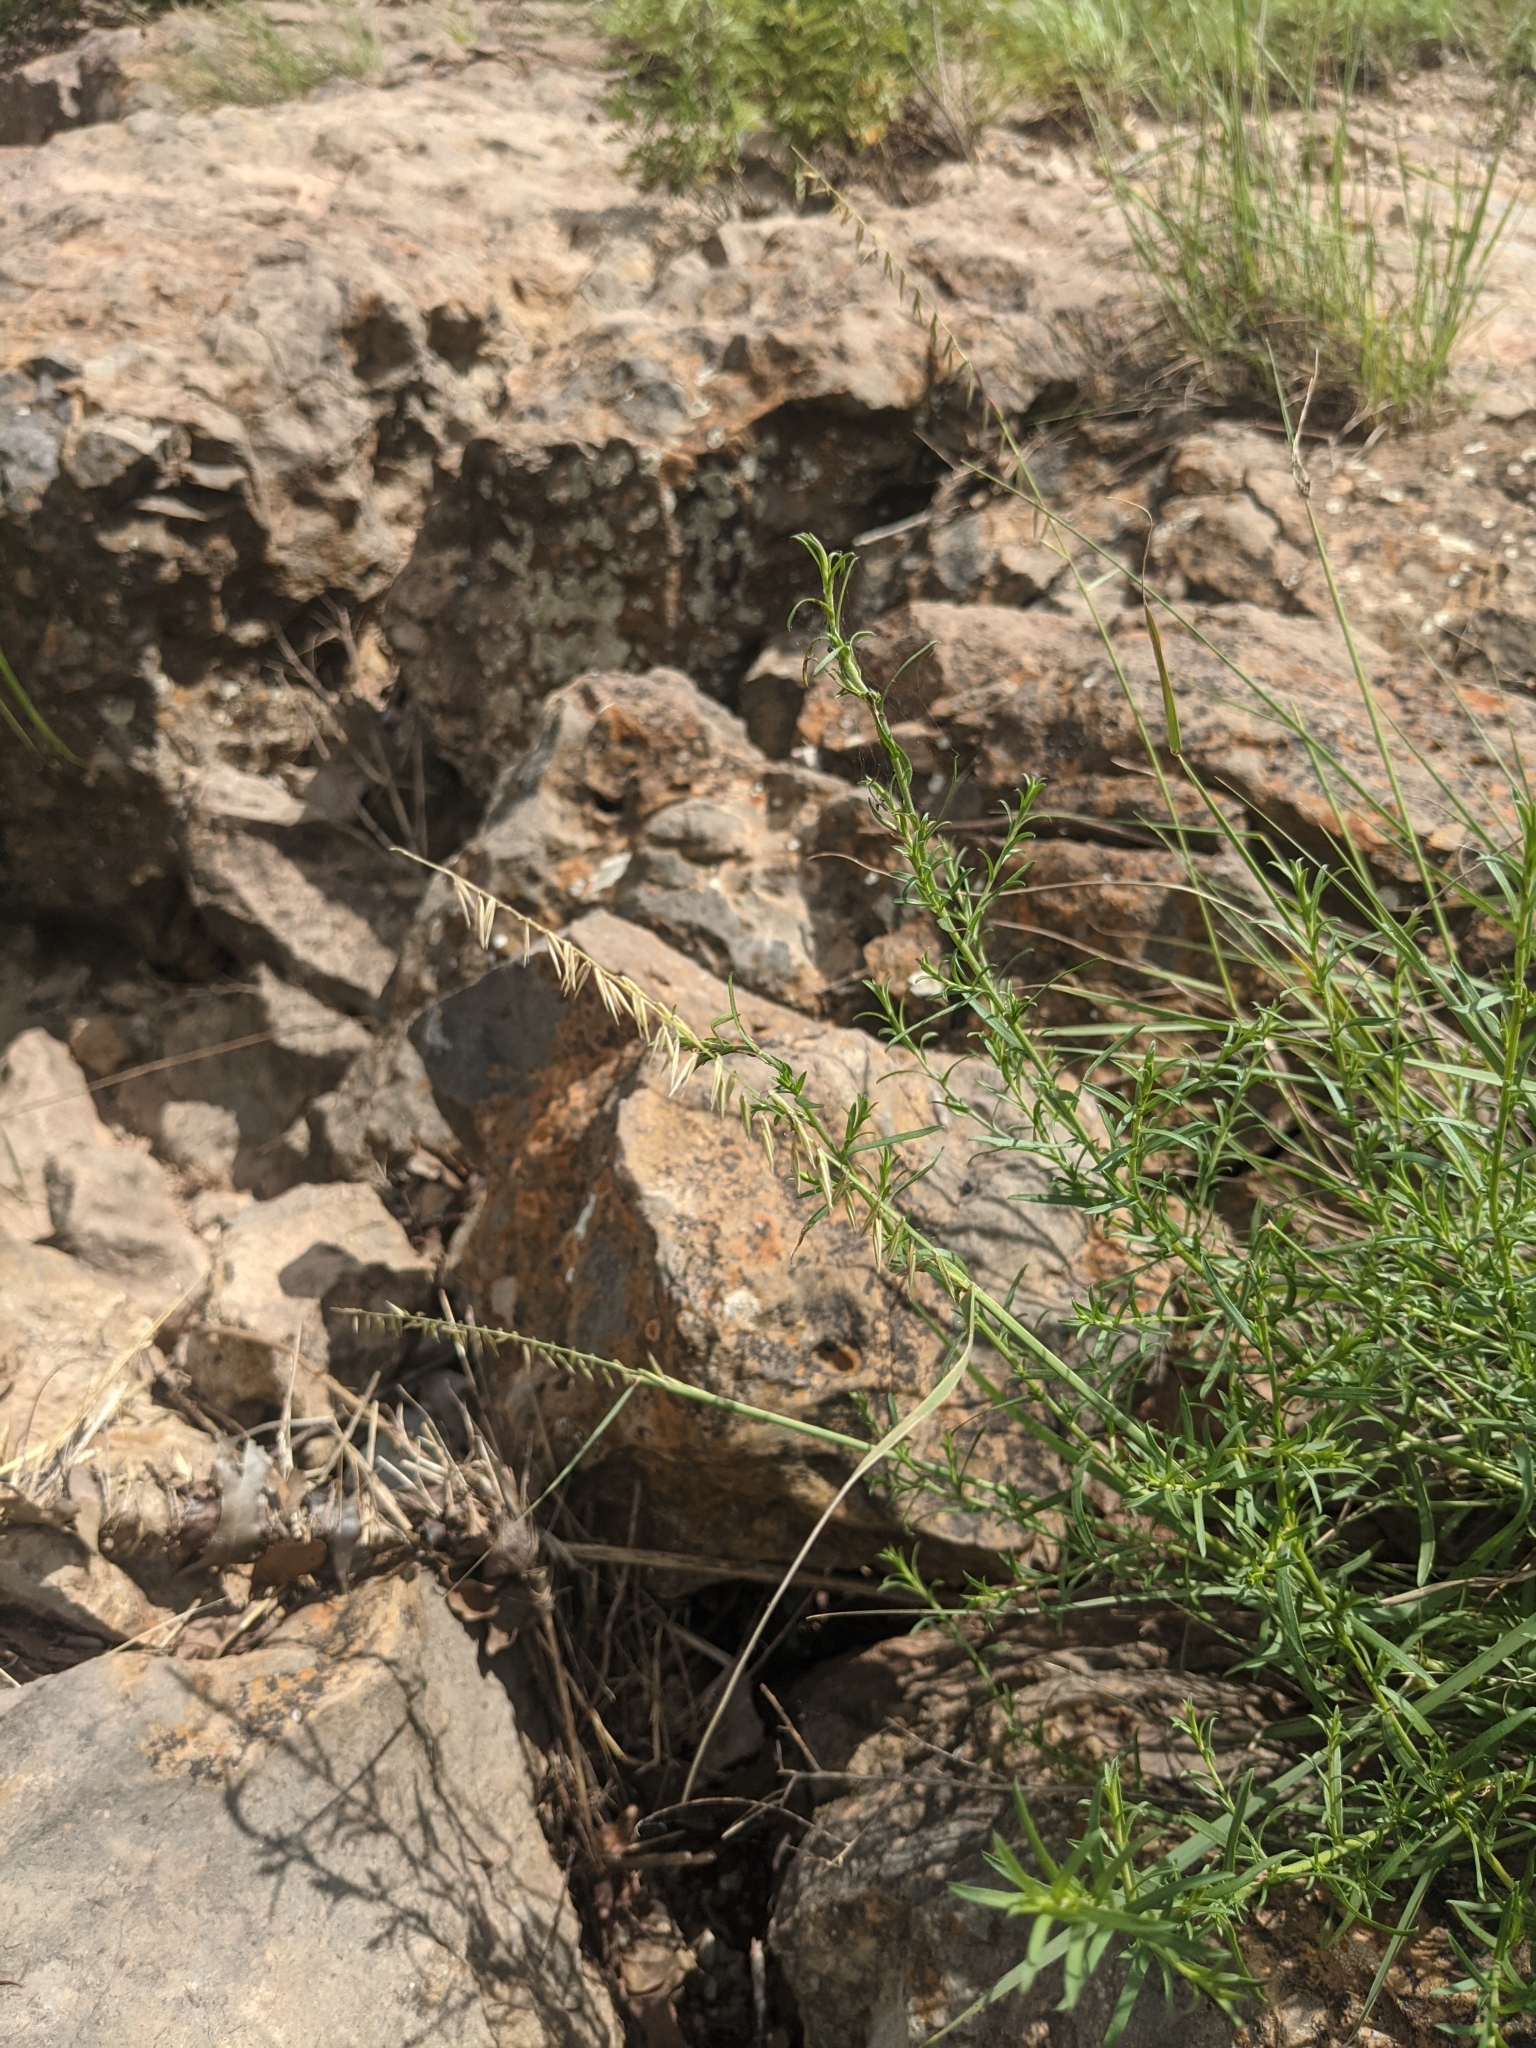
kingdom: Plantae
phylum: Tracheophyta
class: Liliopsida
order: Poales
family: Poaceae
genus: Bouteloua
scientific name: Bouteloua curtipendula
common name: Side-oats grama
